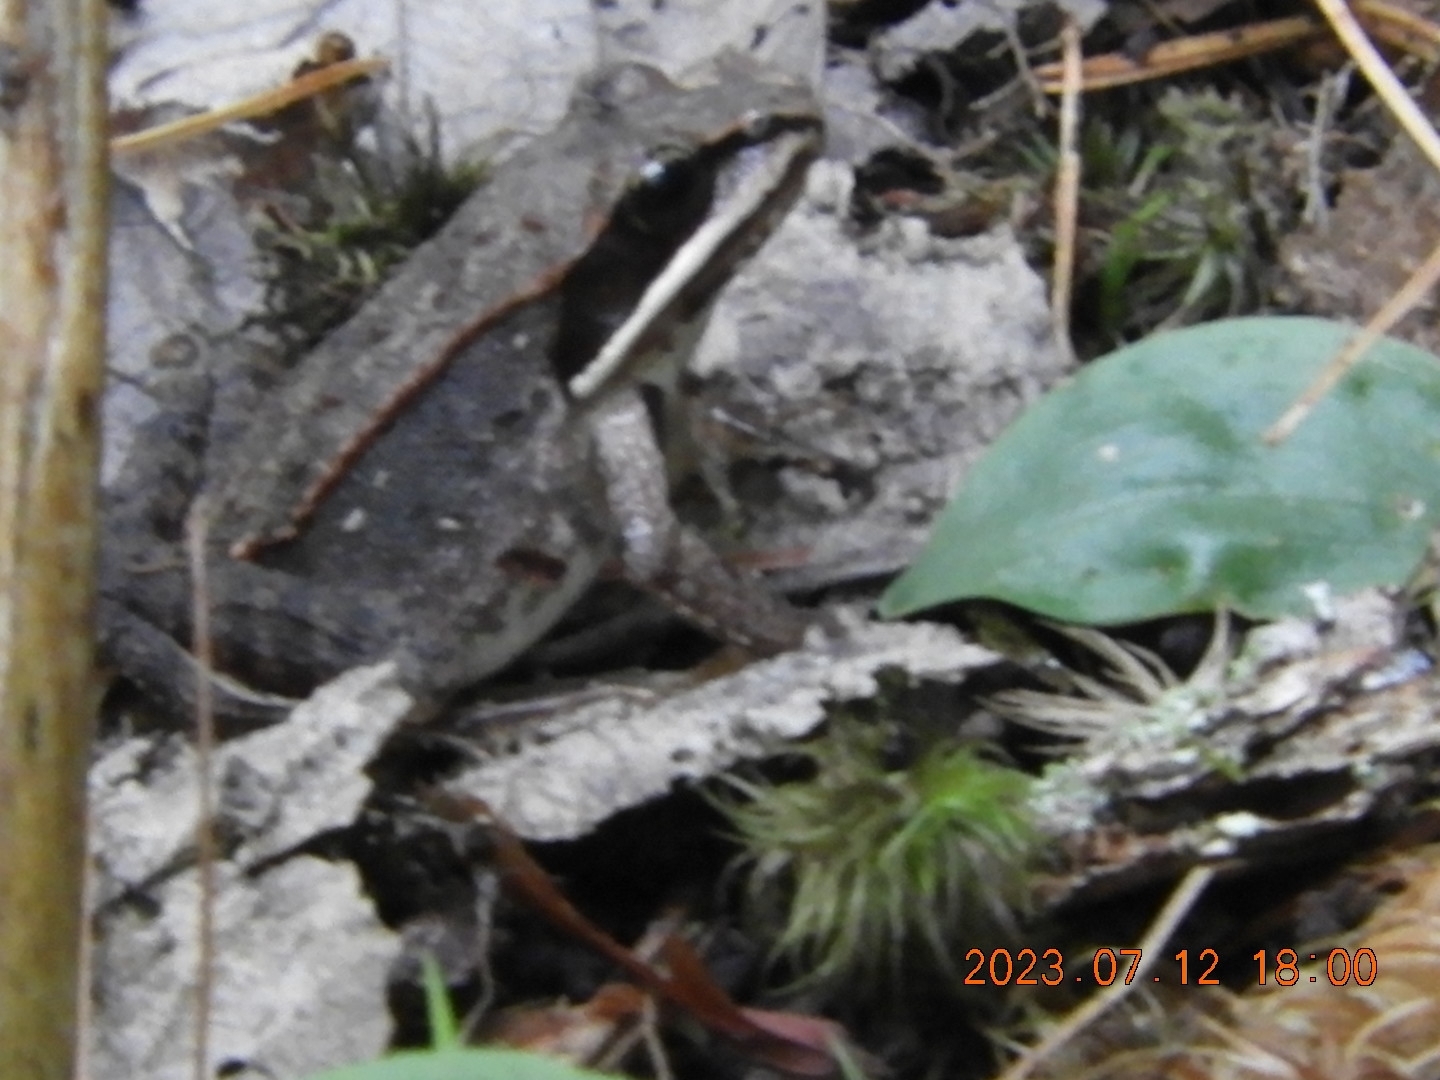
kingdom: Animalia
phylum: Chordata
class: Amphibia
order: Anura
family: Ranidae
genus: Lithobates
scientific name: Lithobates sylvaticus
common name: Wood frog
